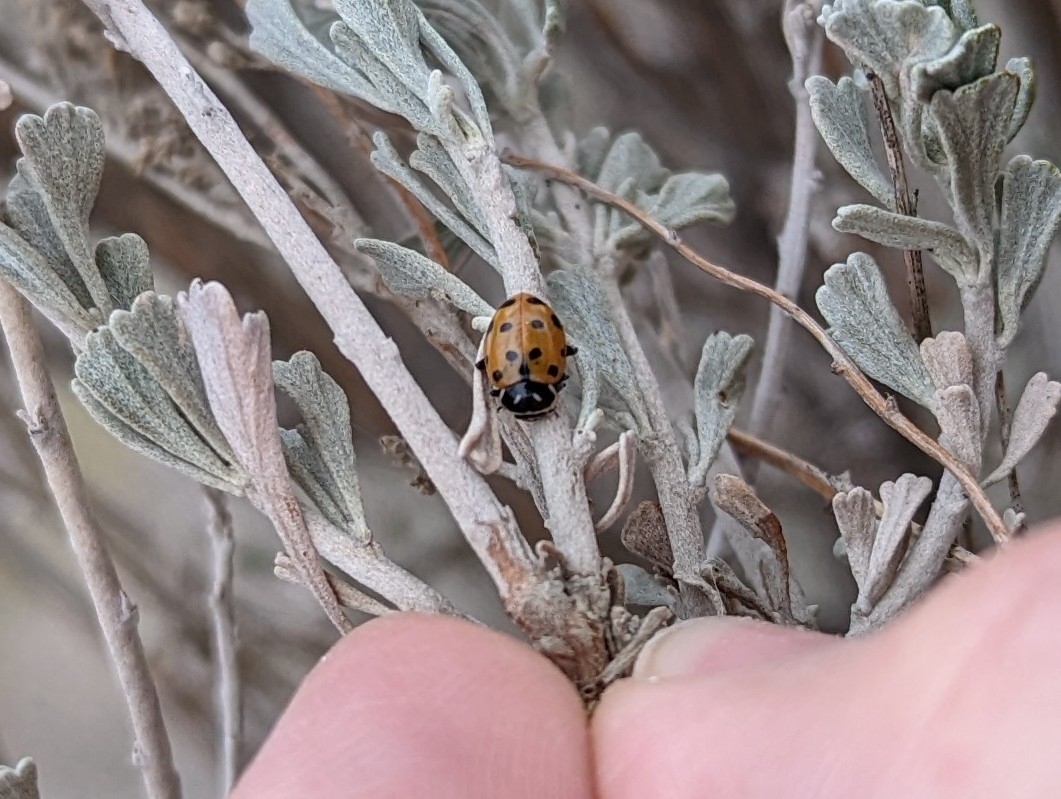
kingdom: Animalia
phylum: Arthropoda
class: Insecta
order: Coleoptera
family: Coccinellidae
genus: Hippodamia
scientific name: Hippodamia convergens
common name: Convergent lady beetle
